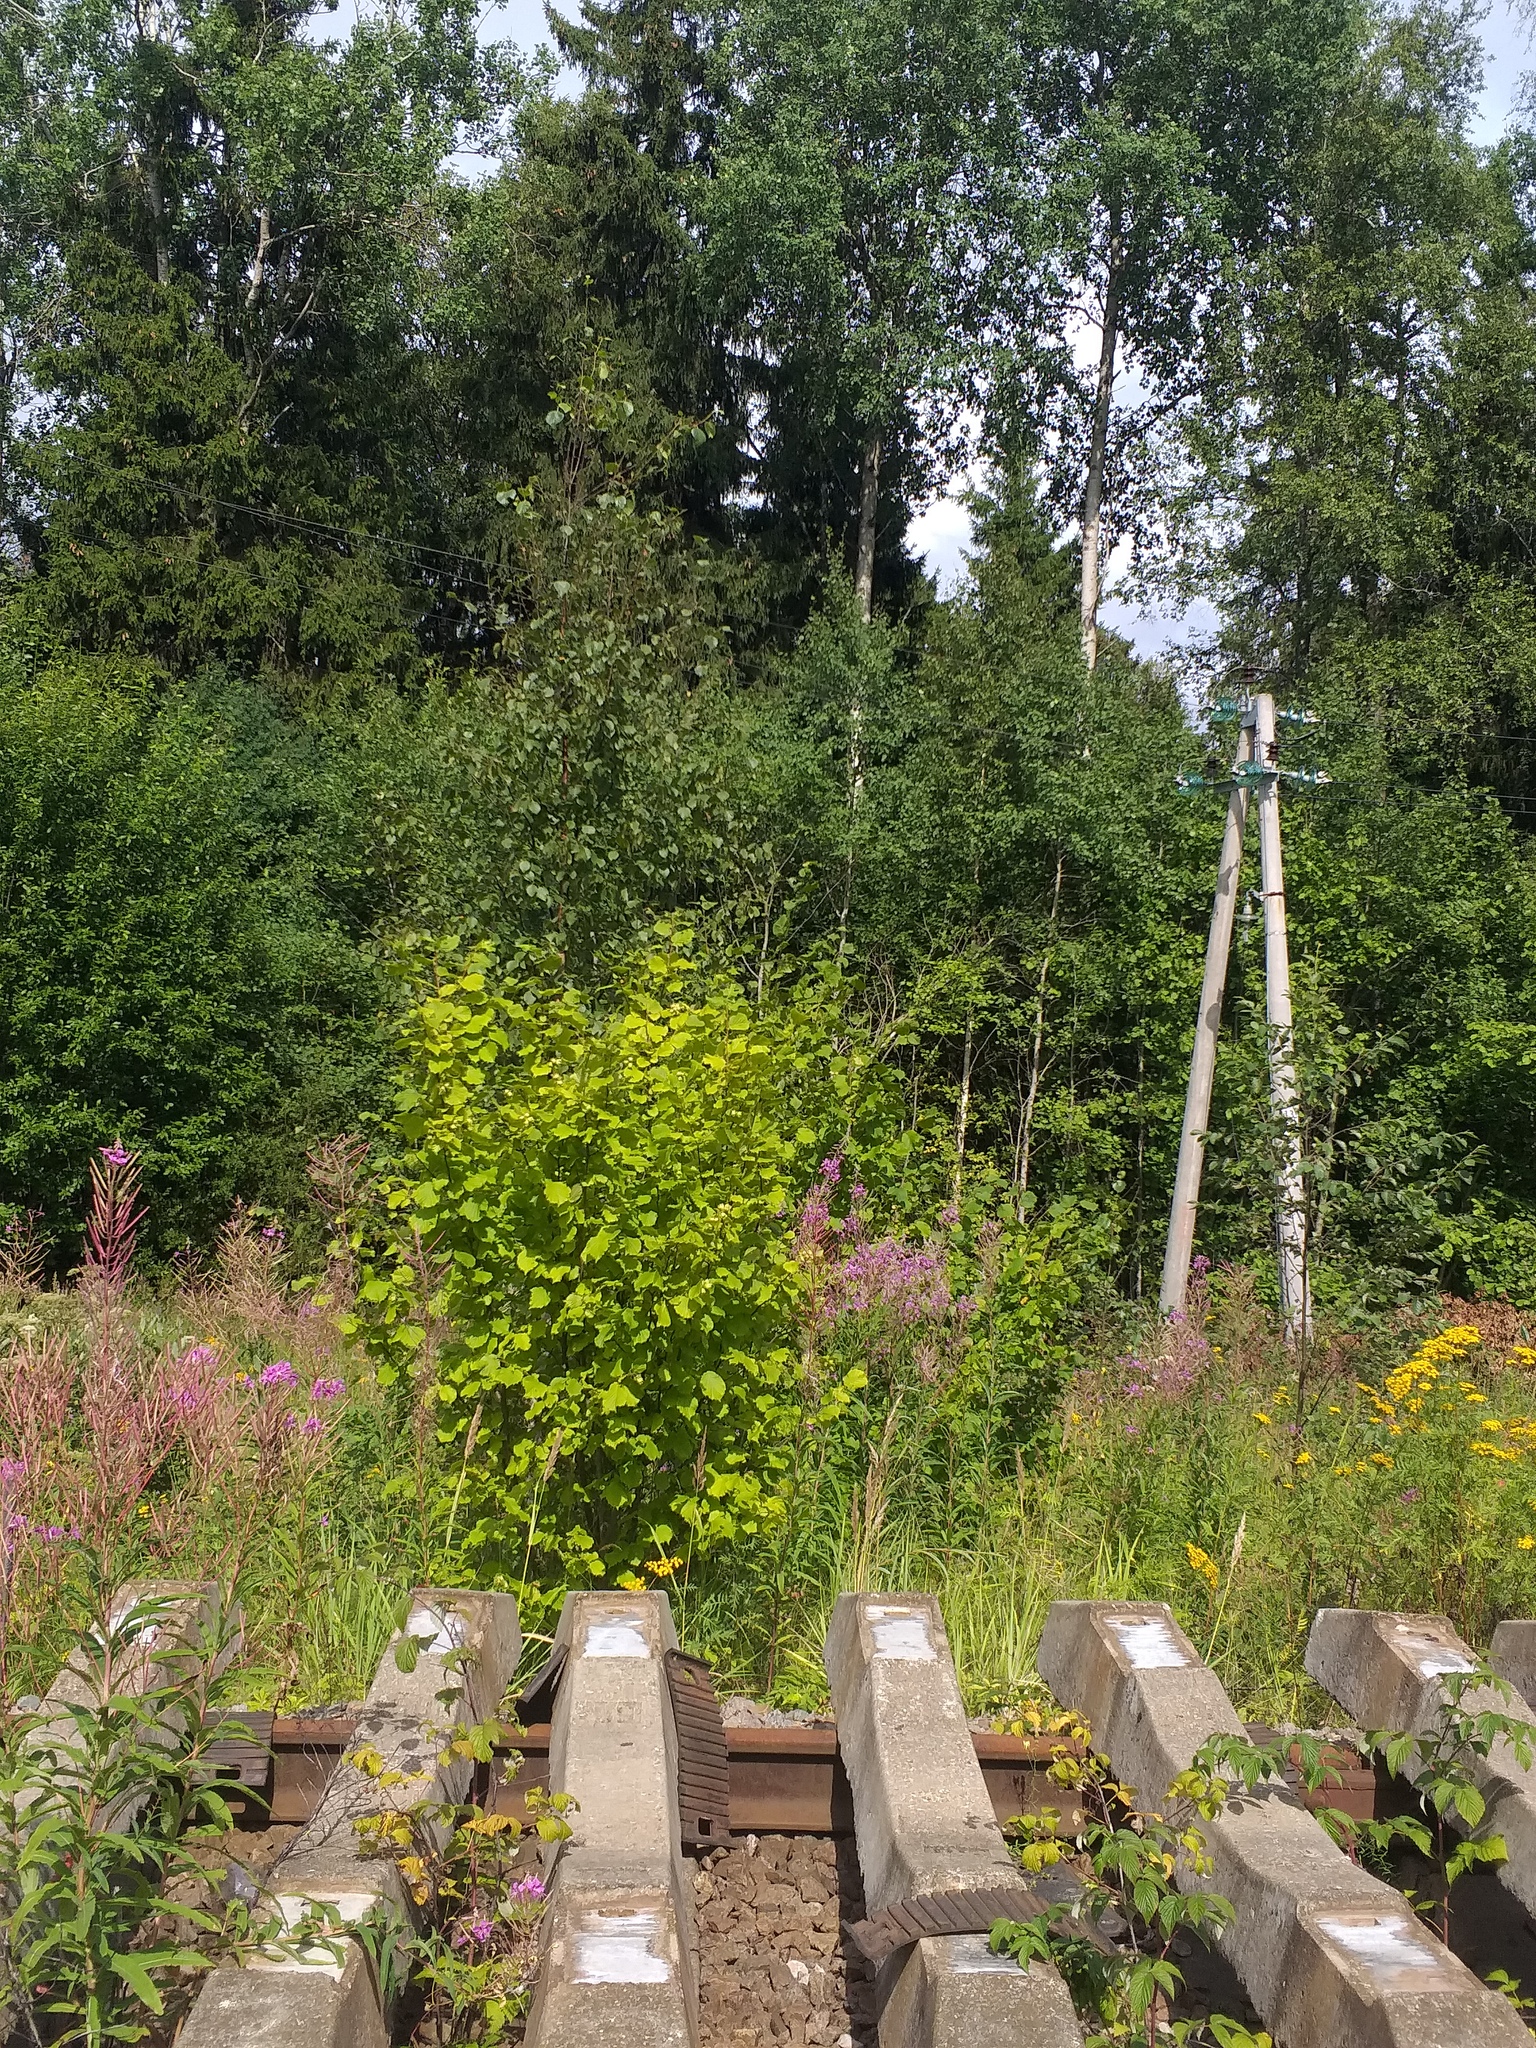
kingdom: Plantae
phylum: Tracheophyta
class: Magnoliopsida
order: Fagales
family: Betulaceae
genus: Corylus
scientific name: Corylus avellana
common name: European hazel
